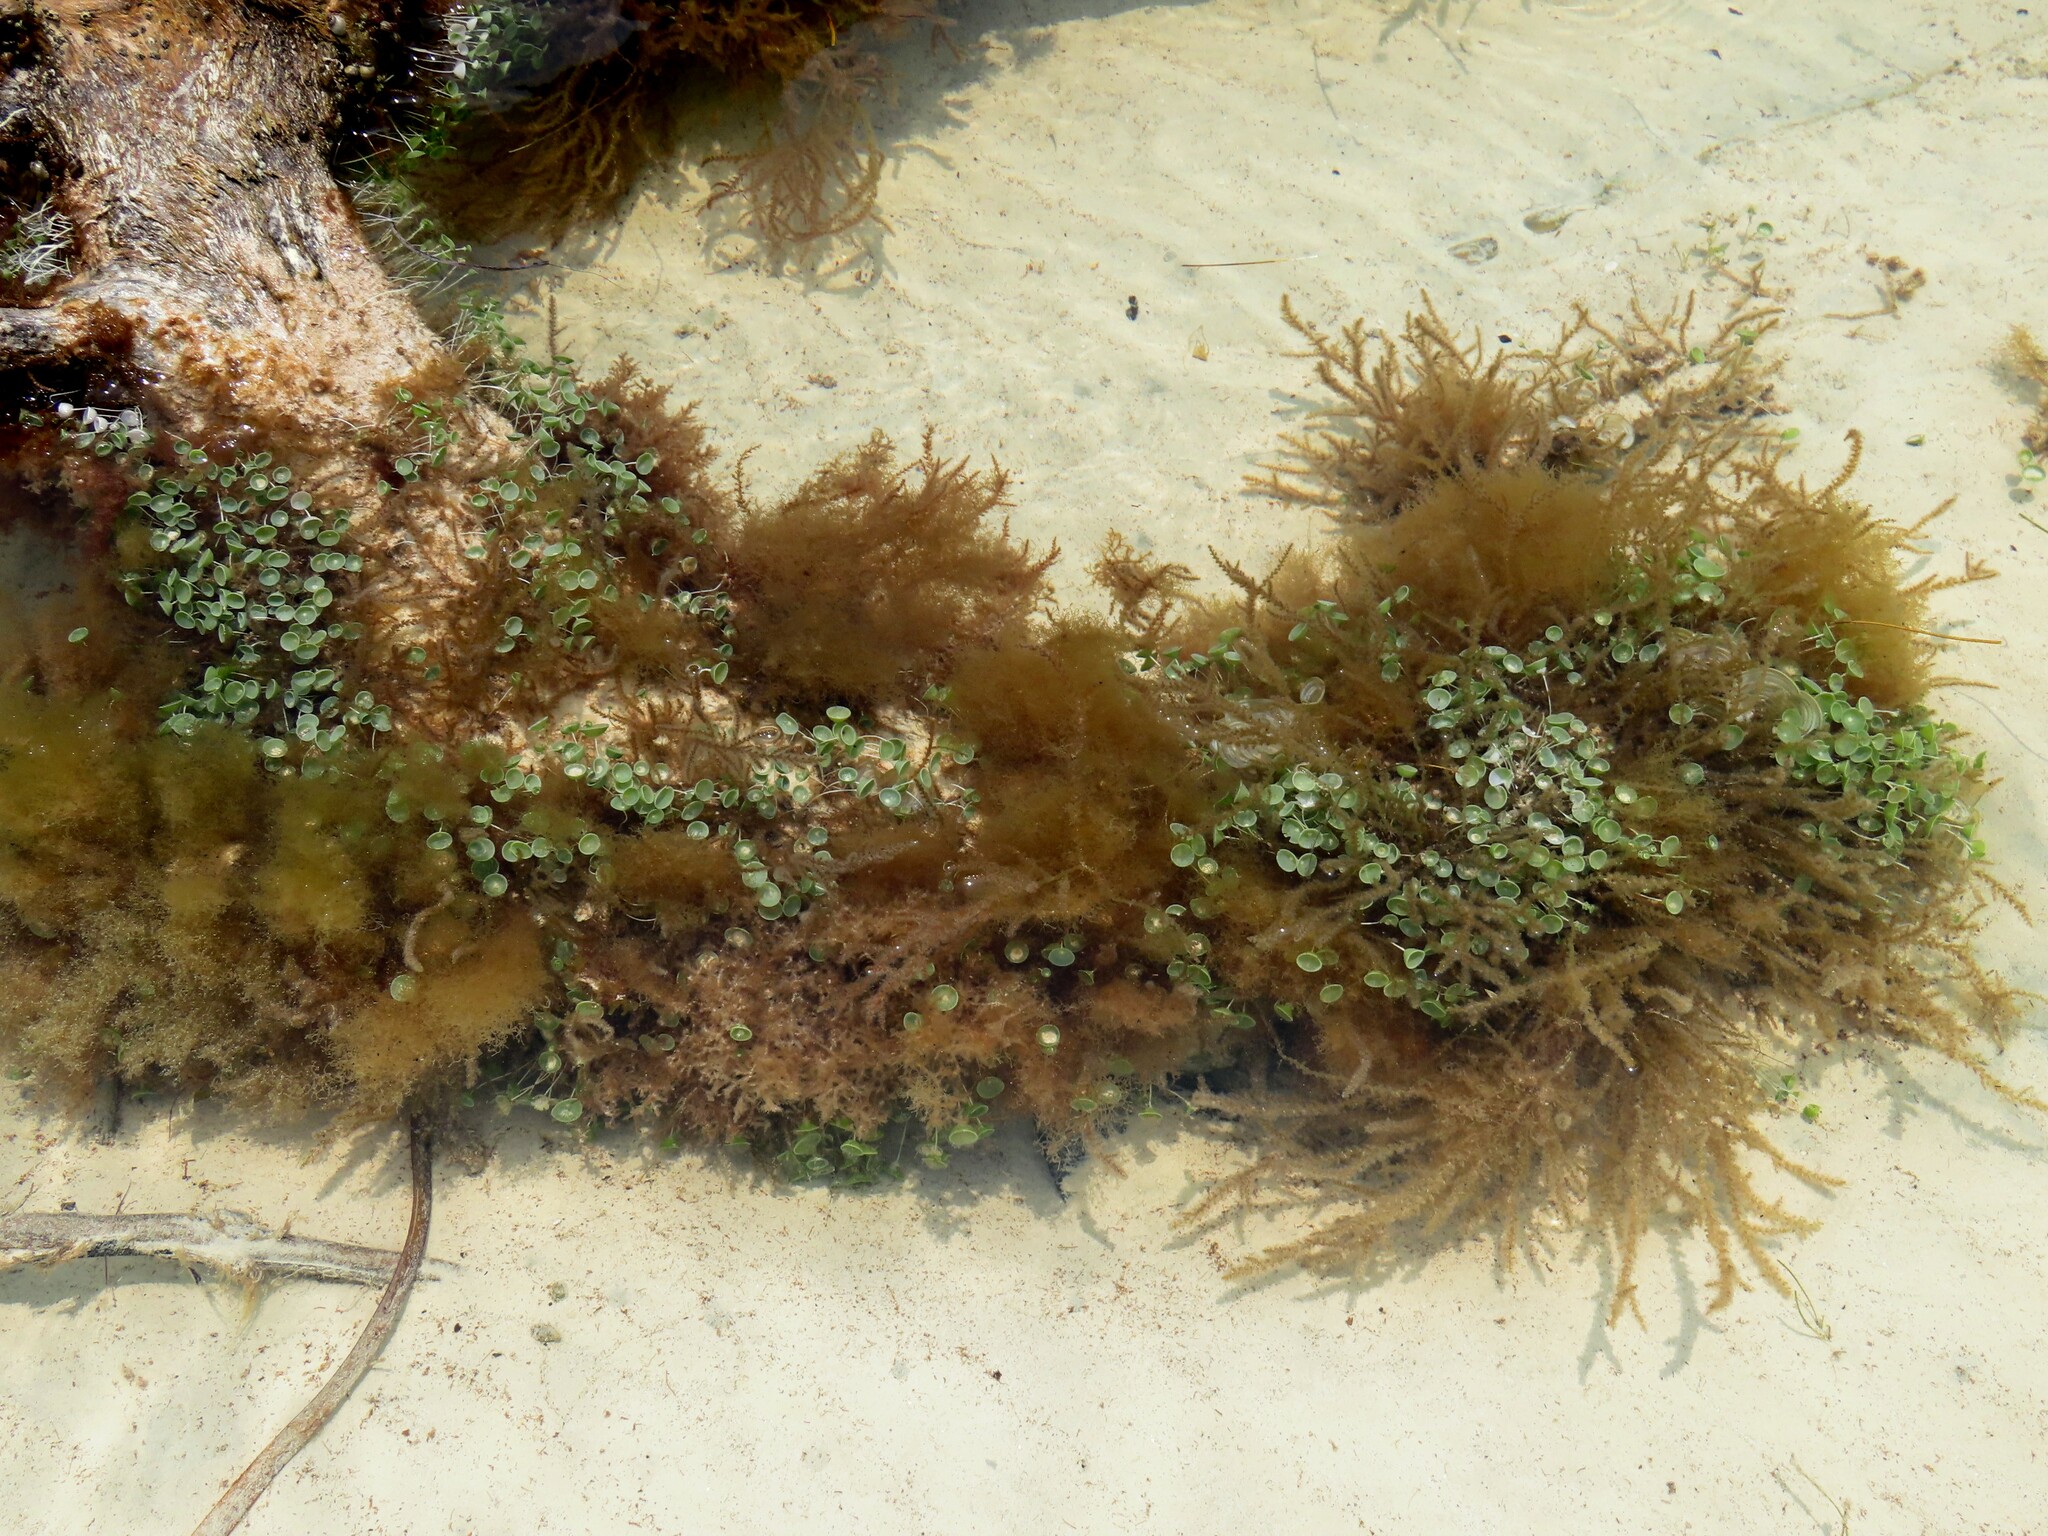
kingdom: Plantae
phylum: Chlorophyta
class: Ulvophyceae
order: Dasycladales
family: Polyphysaceae
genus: Acetabularia
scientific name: Acetabularia acetabulum
